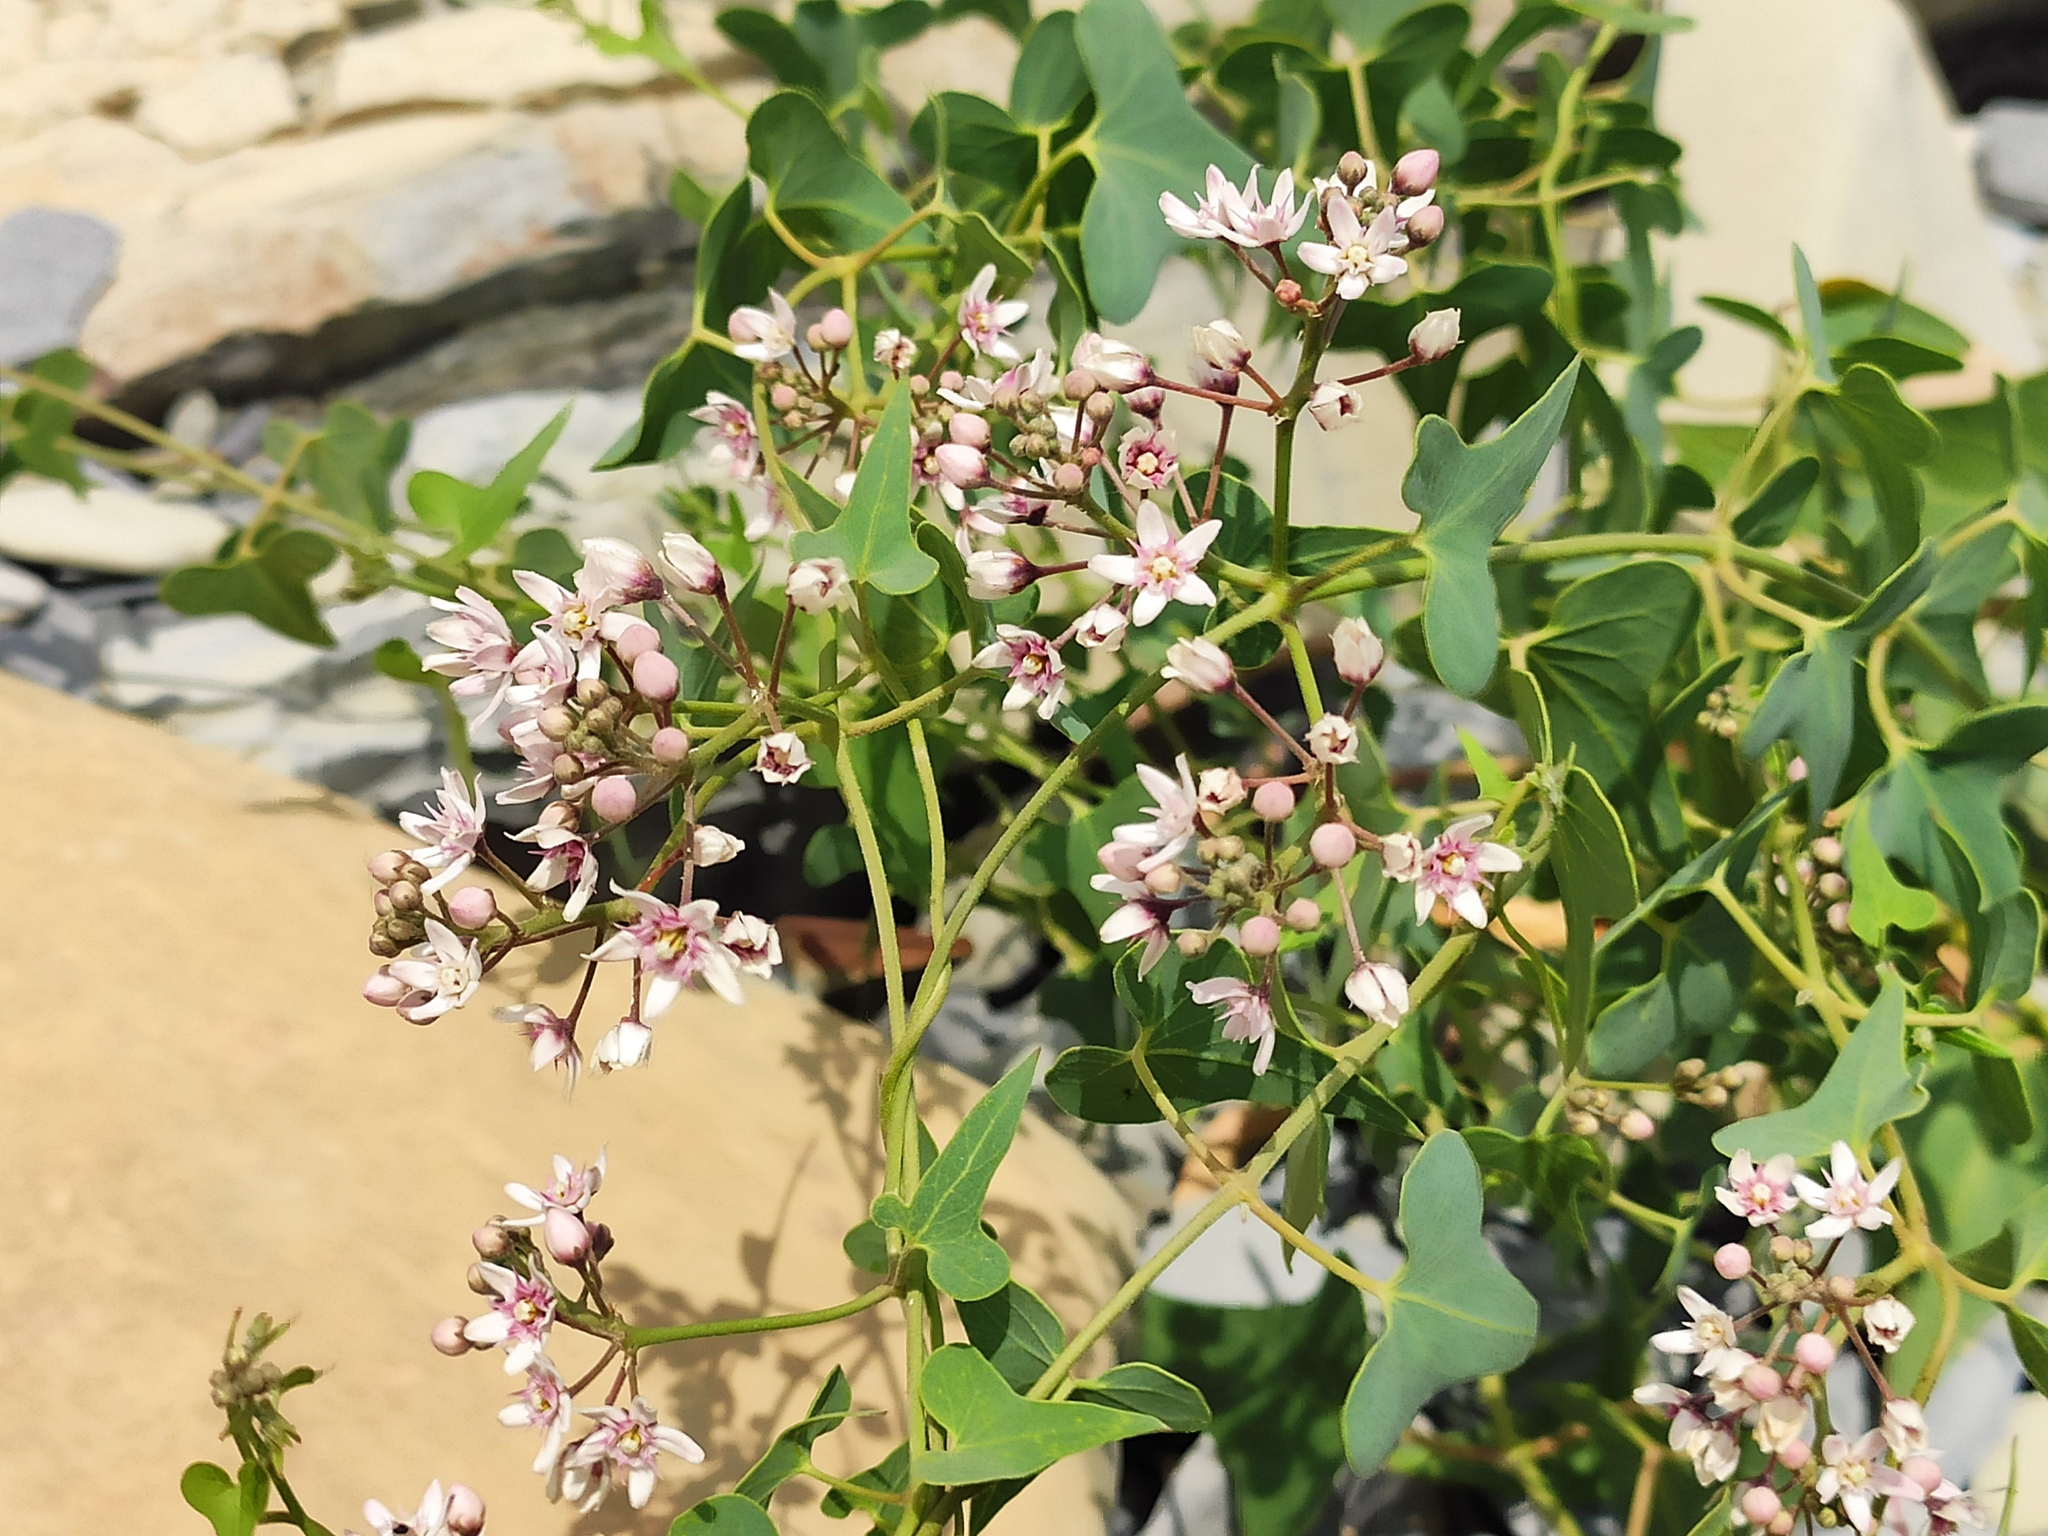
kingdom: Plantae
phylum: Tracheophyta
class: Magnoliopsida
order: Gentianales
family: Apocynaceae
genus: Cynanchum
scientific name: Cynanchum acutum
